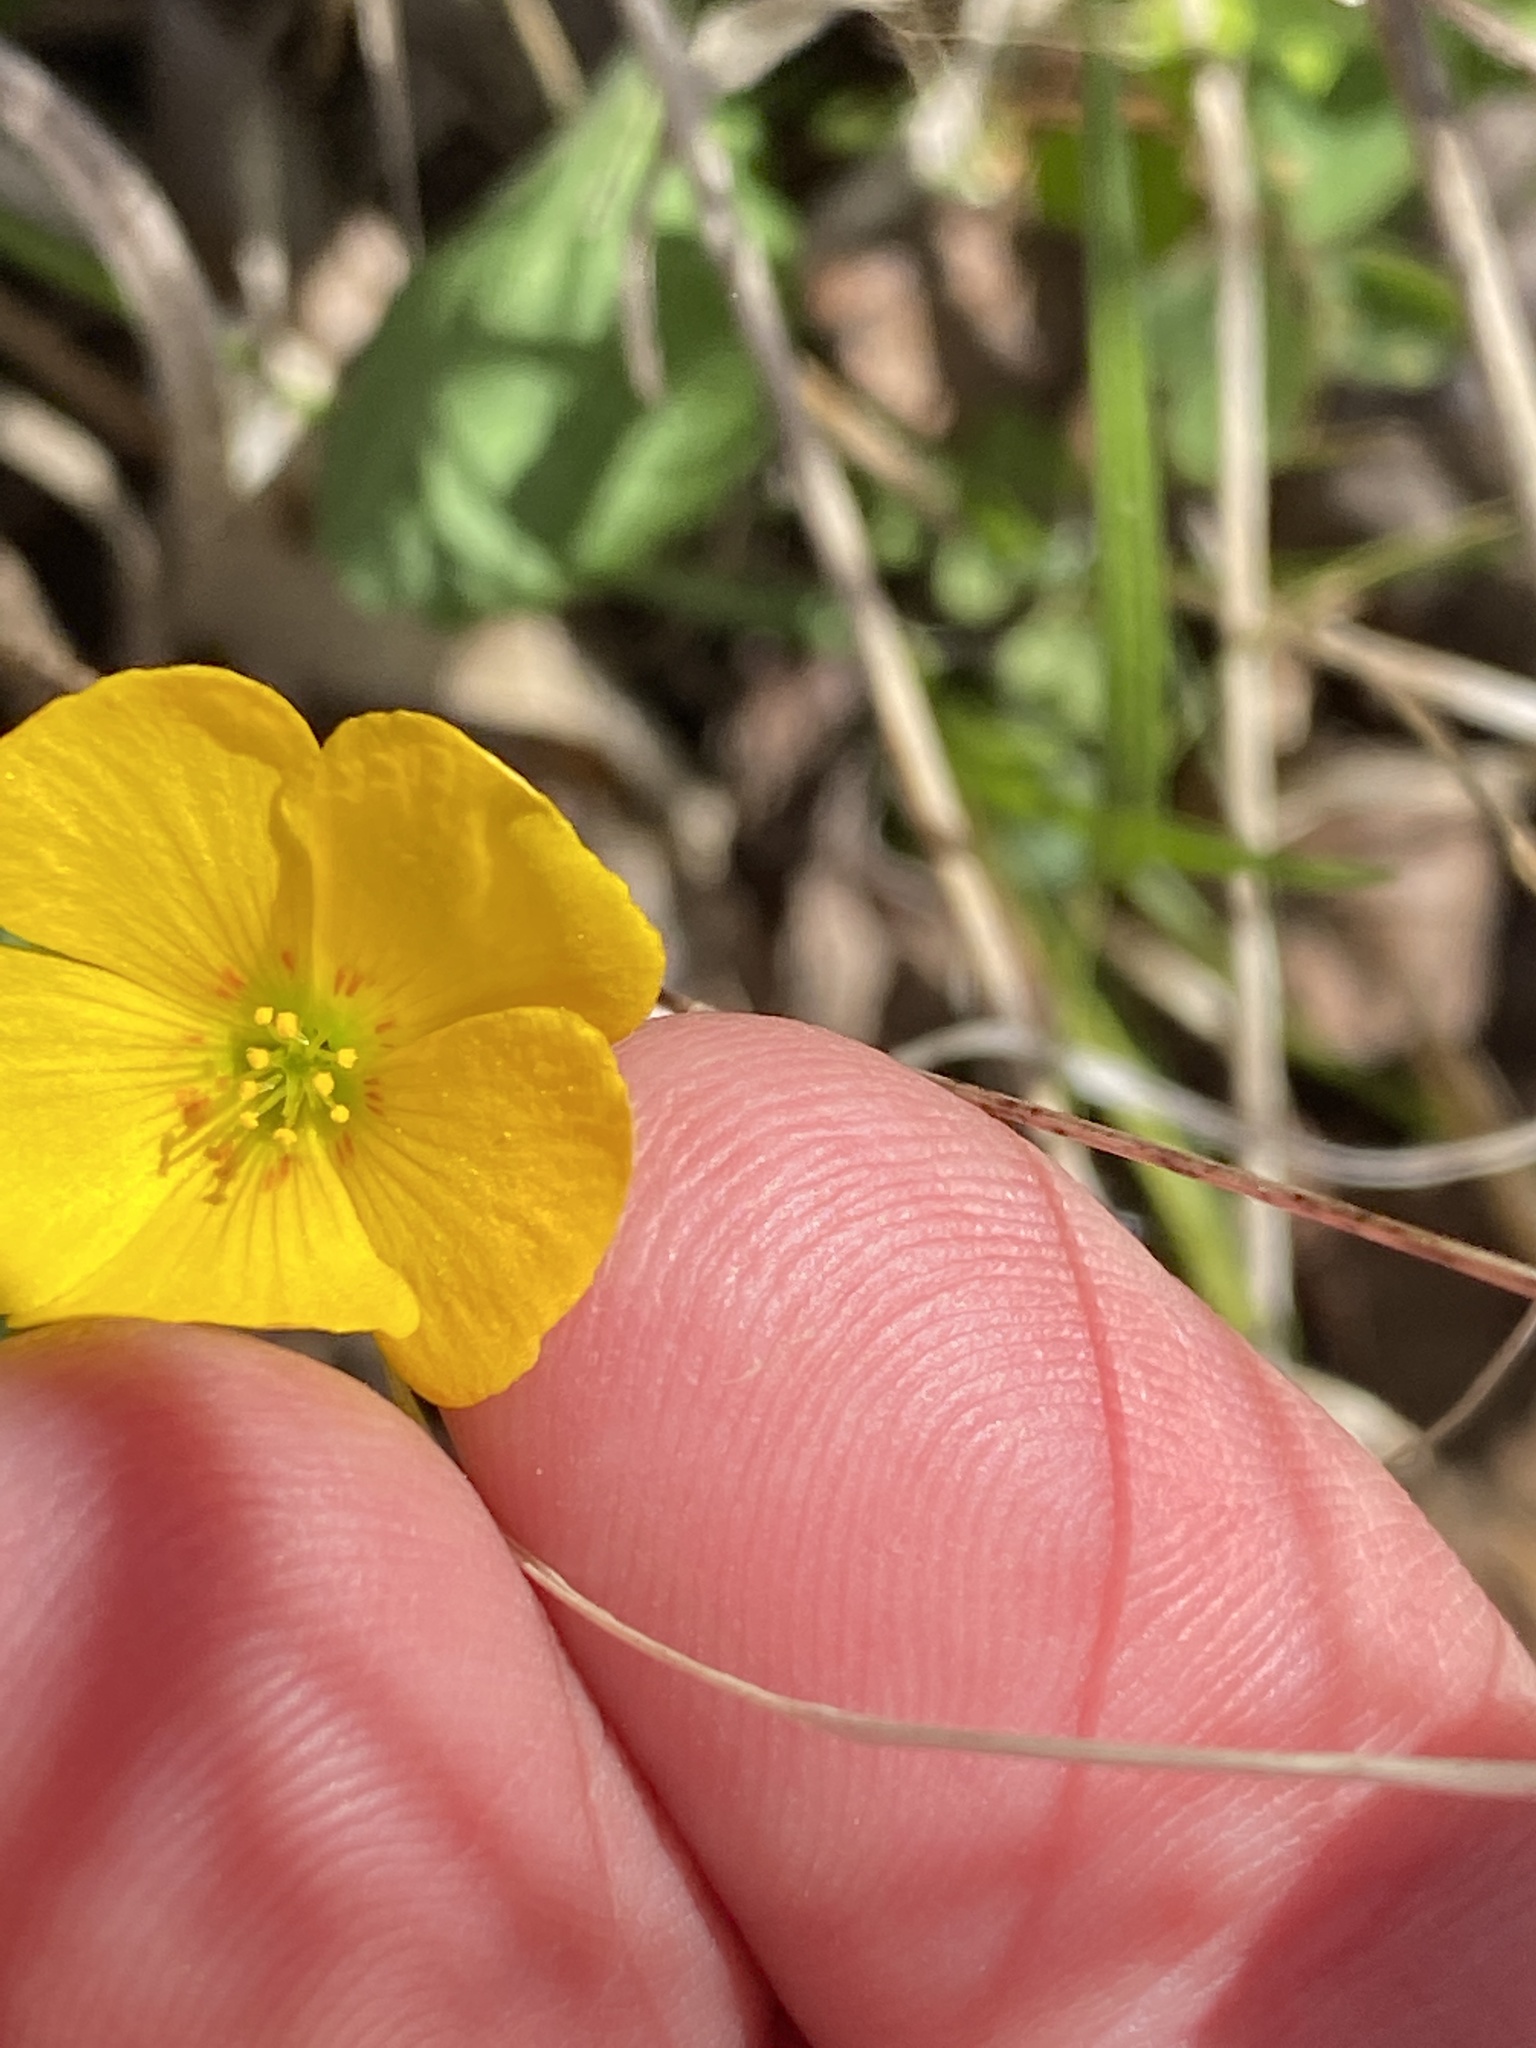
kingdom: Plantae
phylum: Tracheophyta
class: Magnoliopsida
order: Oxalidales
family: Oxalidaceae
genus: Oxalis
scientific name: Oxalis colorea
